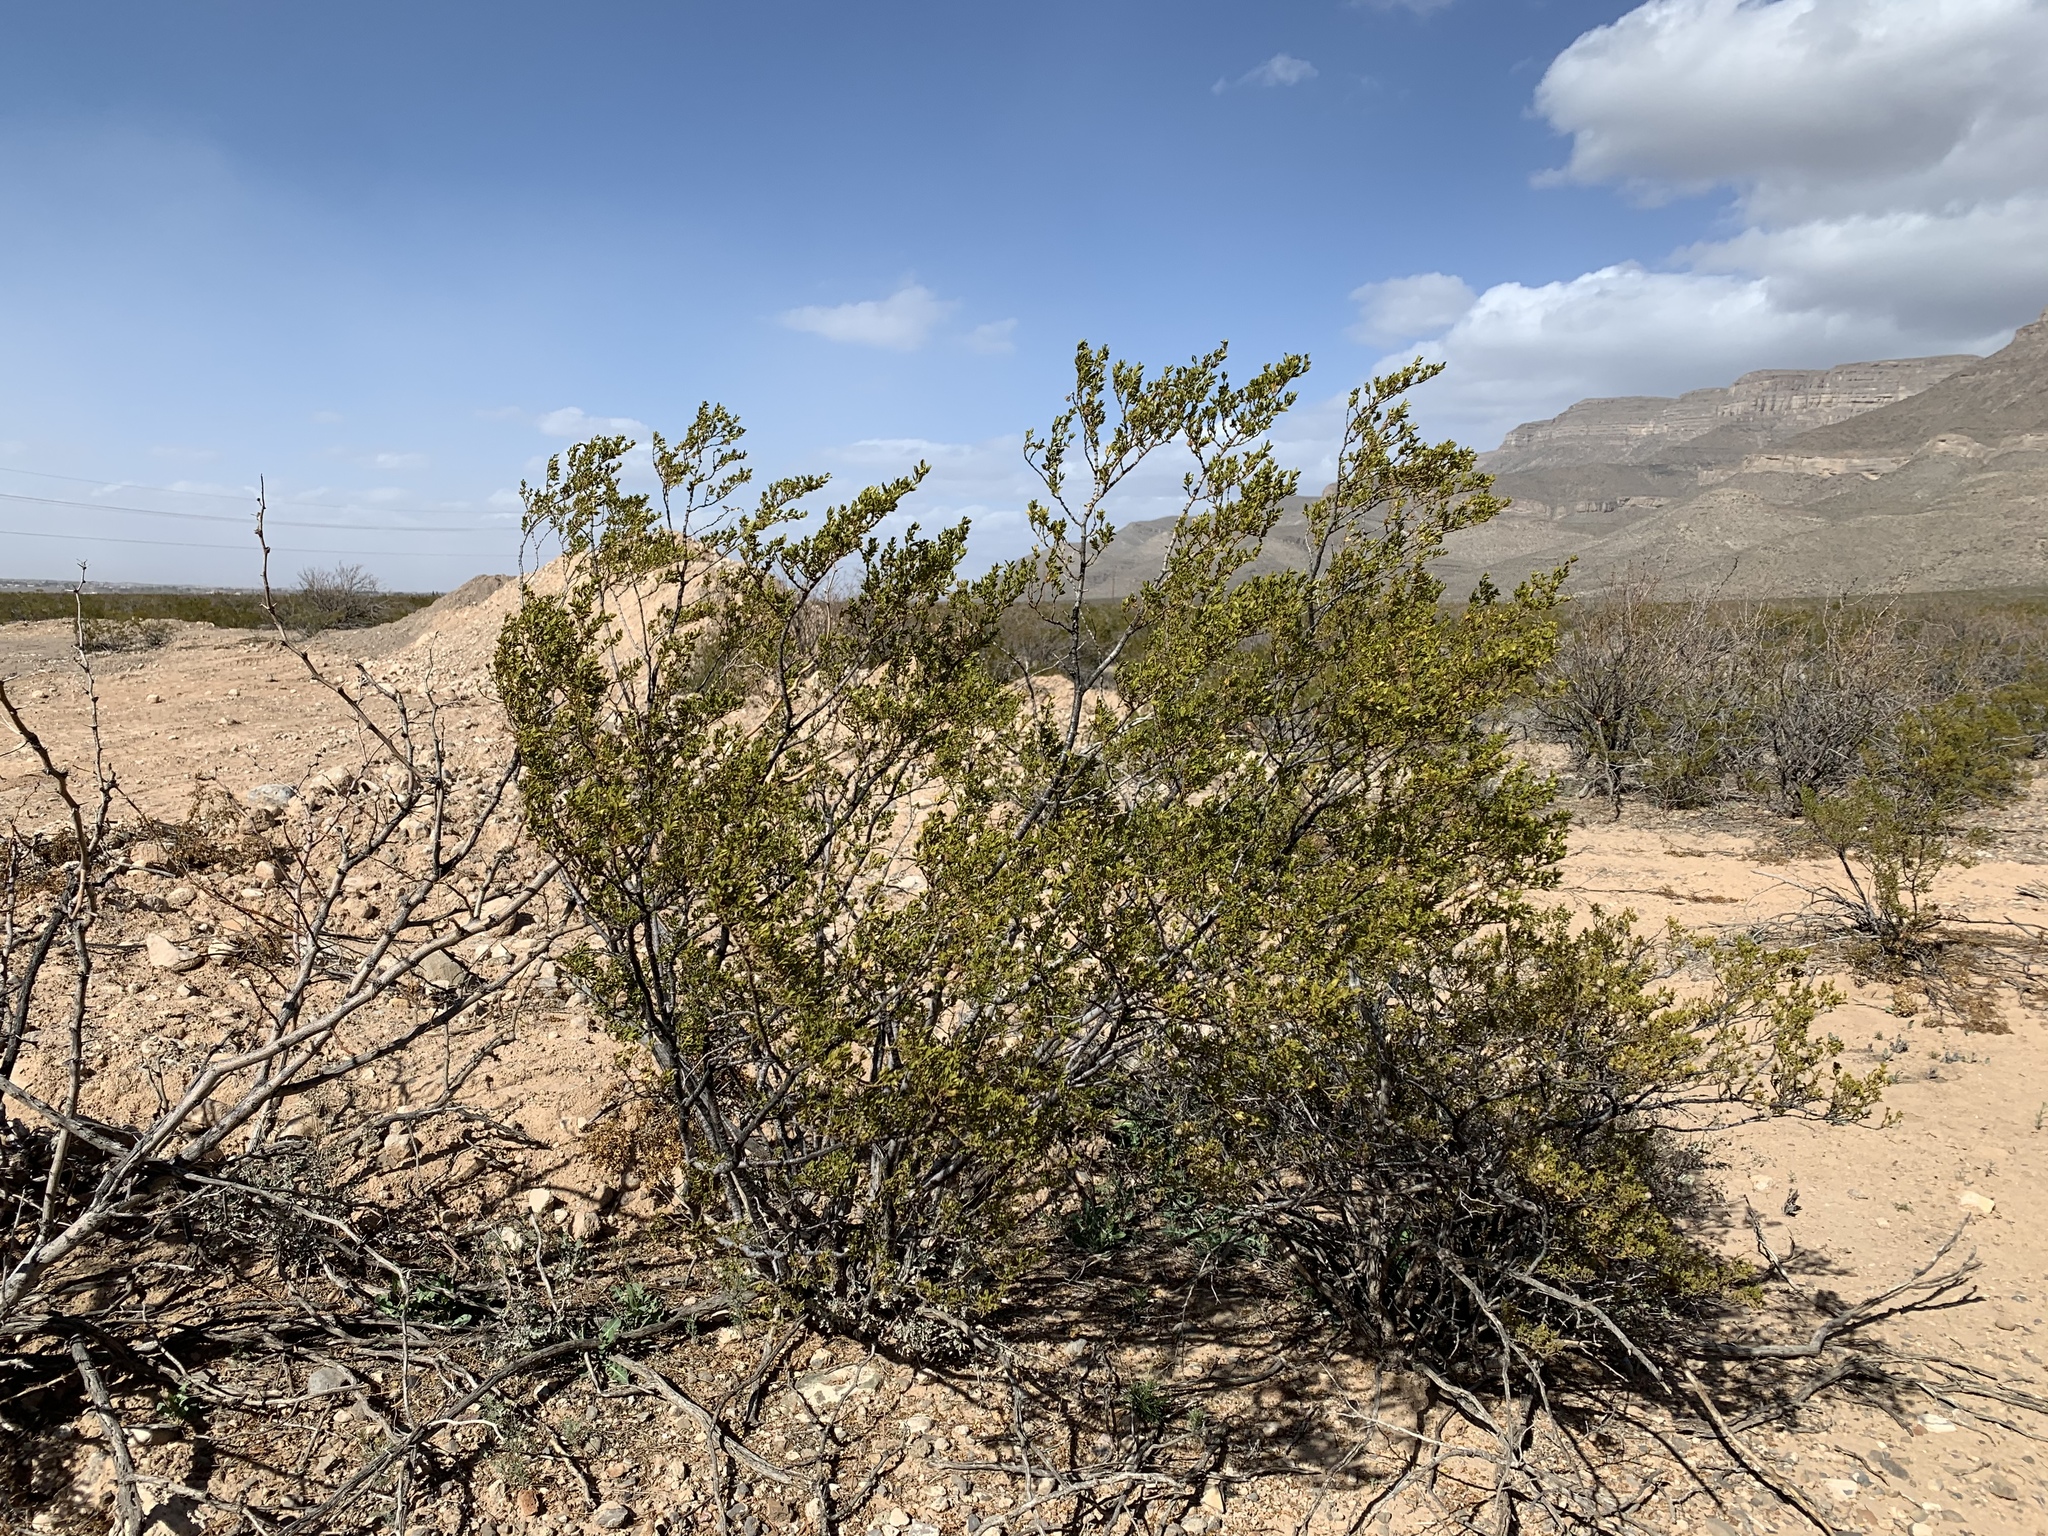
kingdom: Plantae
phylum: Tracheophyta
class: Magnoliopsida
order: Zygophyllales
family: Zygophyllaceae
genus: Larrea
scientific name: Larrea tridentata
